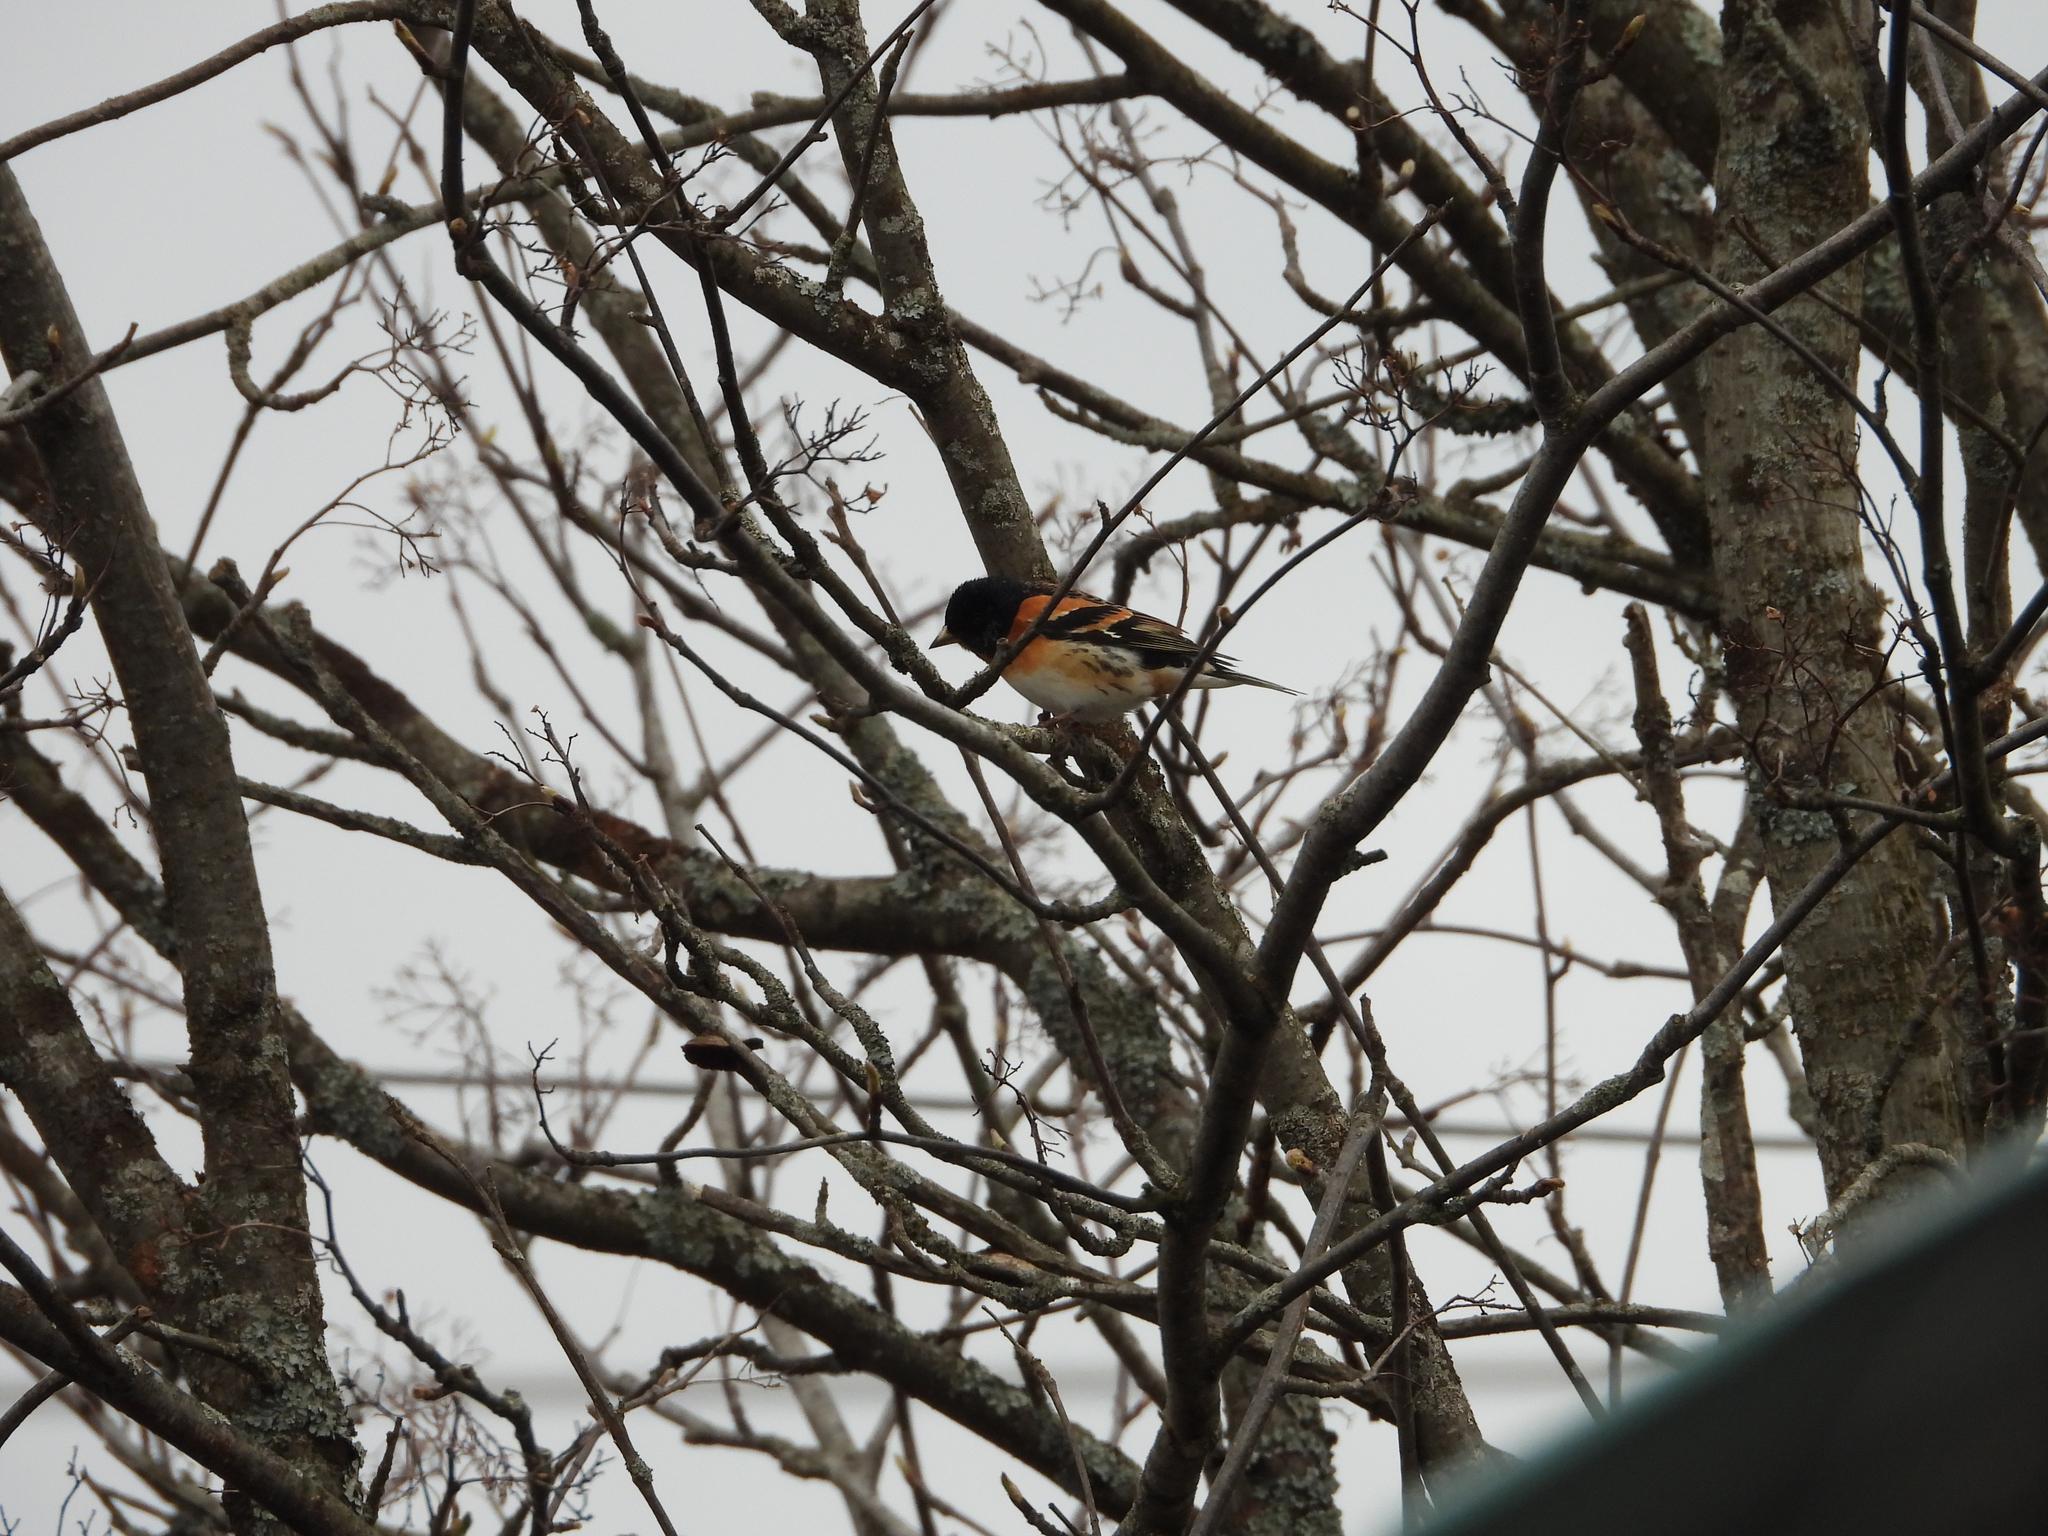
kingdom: Animalia
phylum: Chordata
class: Aves
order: Passeriformes
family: Fringillidae
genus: Fringilla
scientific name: Fringilla montifringilla
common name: Brambling
